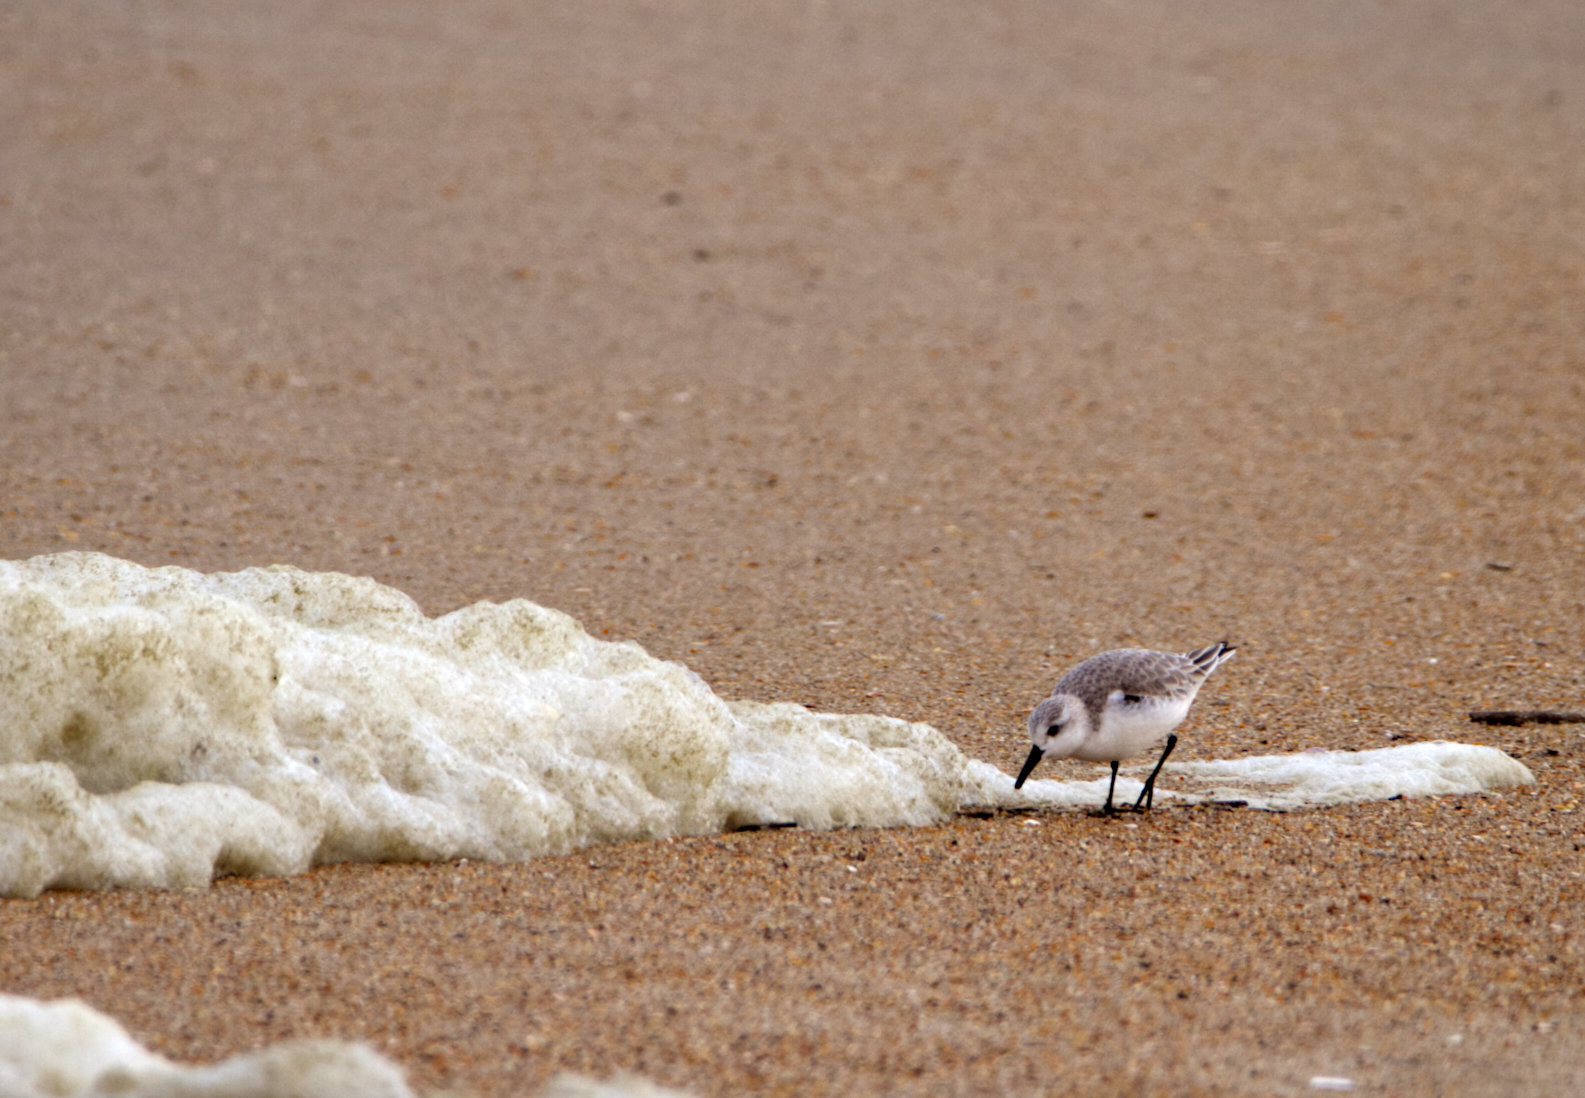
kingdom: Animalia
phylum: Chordata
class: Aves
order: Charadriiformes
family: Scolopacidae
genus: Calidris
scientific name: Calidris alba
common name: Sanderling
